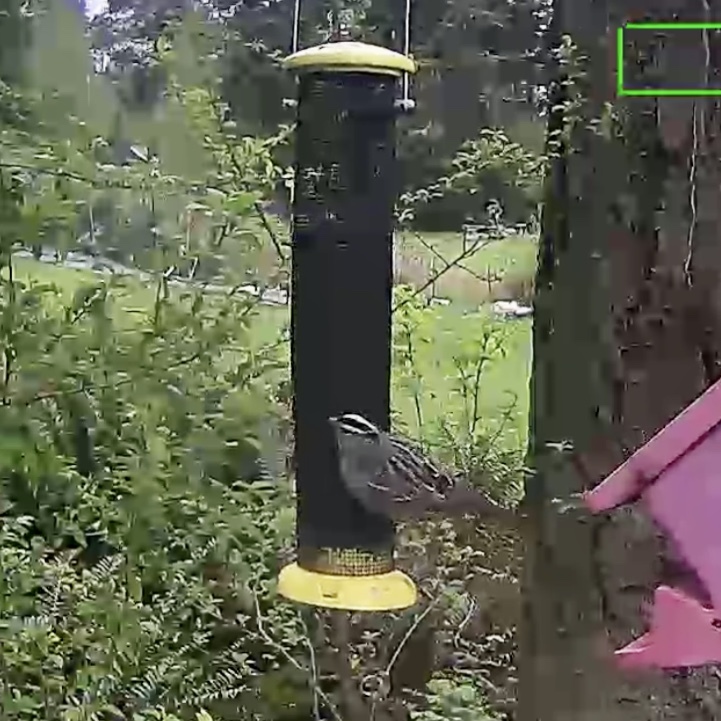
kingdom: Animalia
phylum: Chordata
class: Aves
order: Passeriformes
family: Passerellidae
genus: Zonotrichia
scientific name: Zonotrichia leucophrys
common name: White-crowned sparrow
